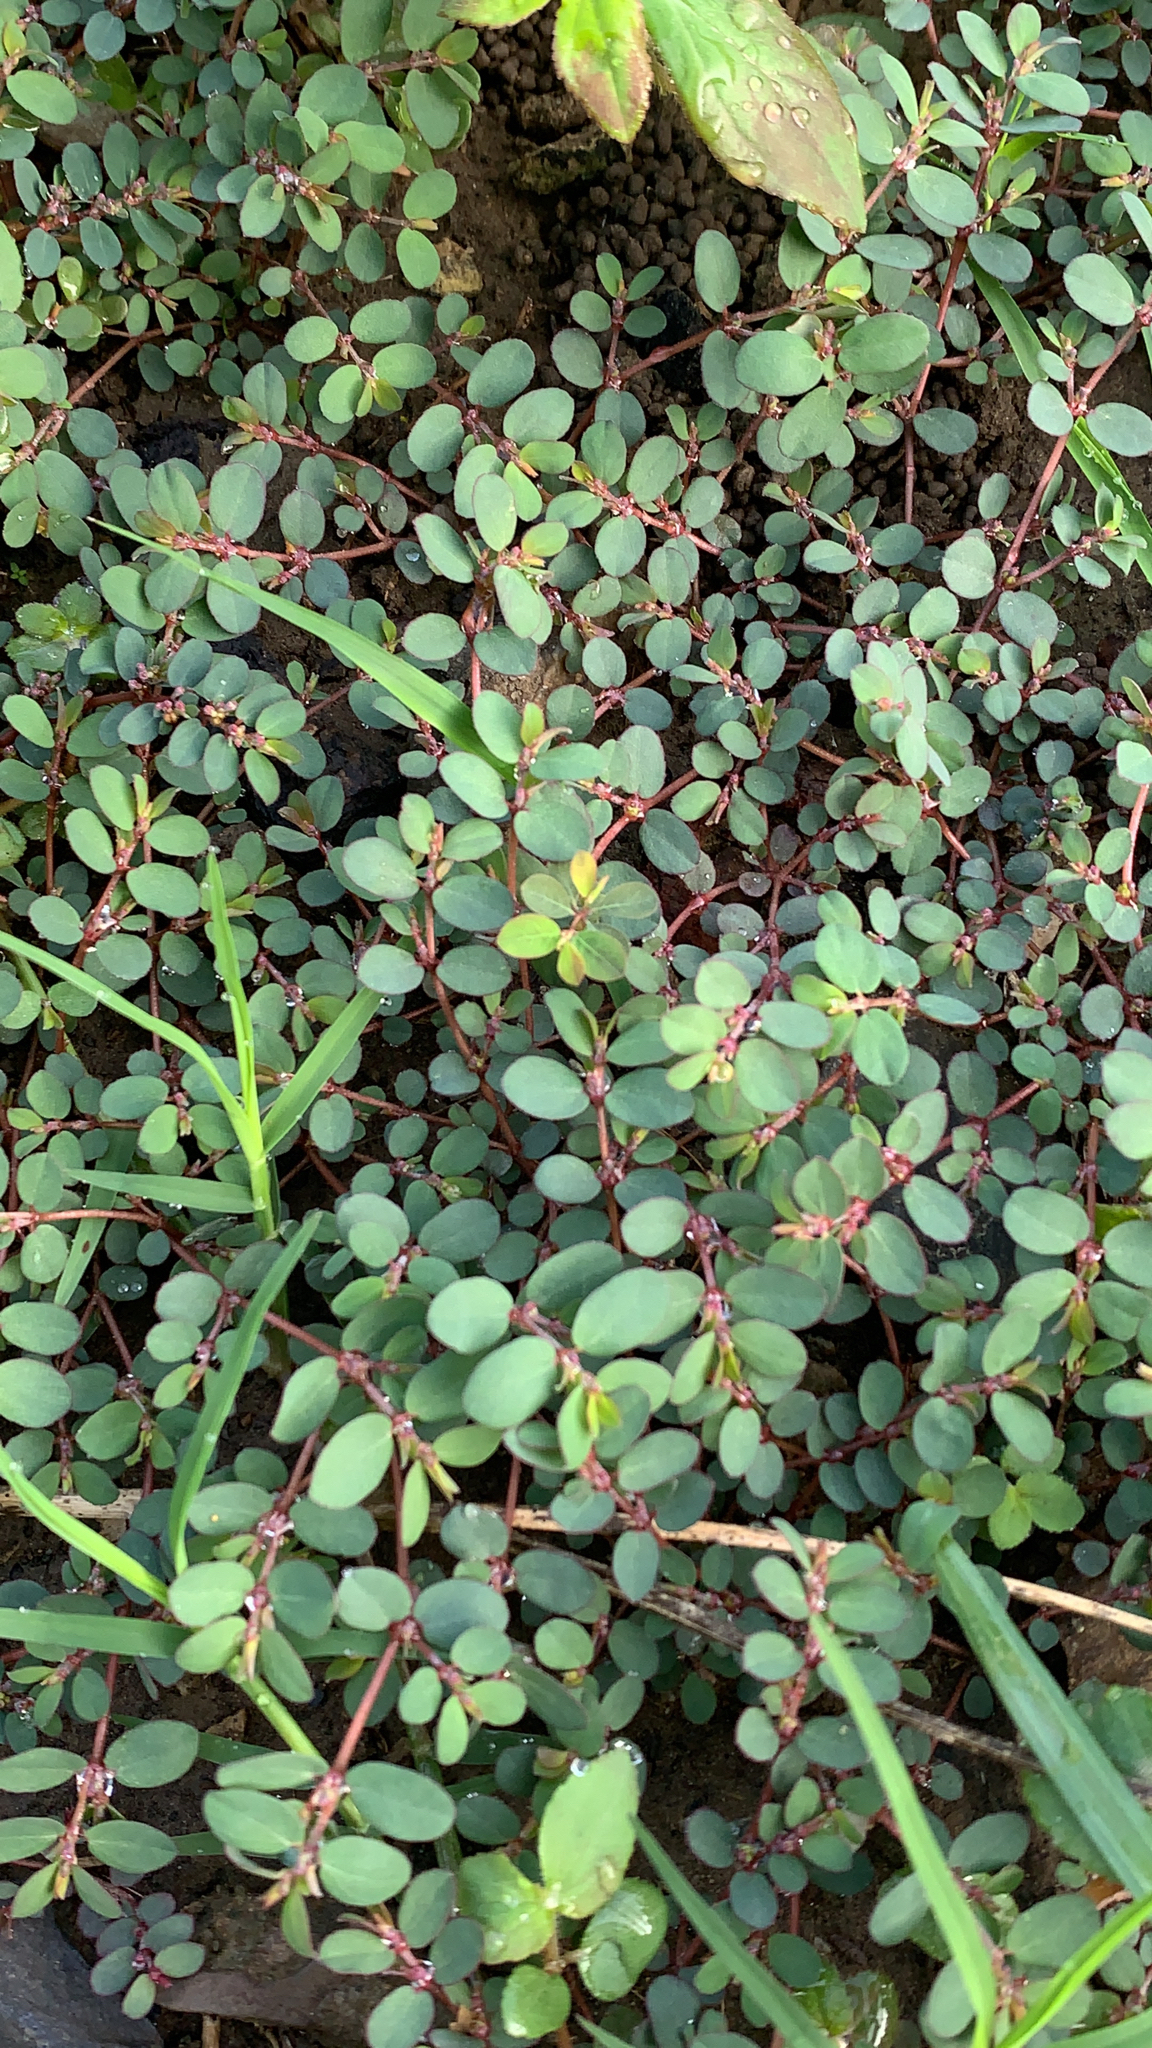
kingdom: Plantae
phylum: Tracheophyta
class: Magnoliopsida
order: Malpighiales
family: Euphorbiaceae
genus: Euphorbia
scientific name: Euphorbia prostrata
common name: Prostrate sandmat
